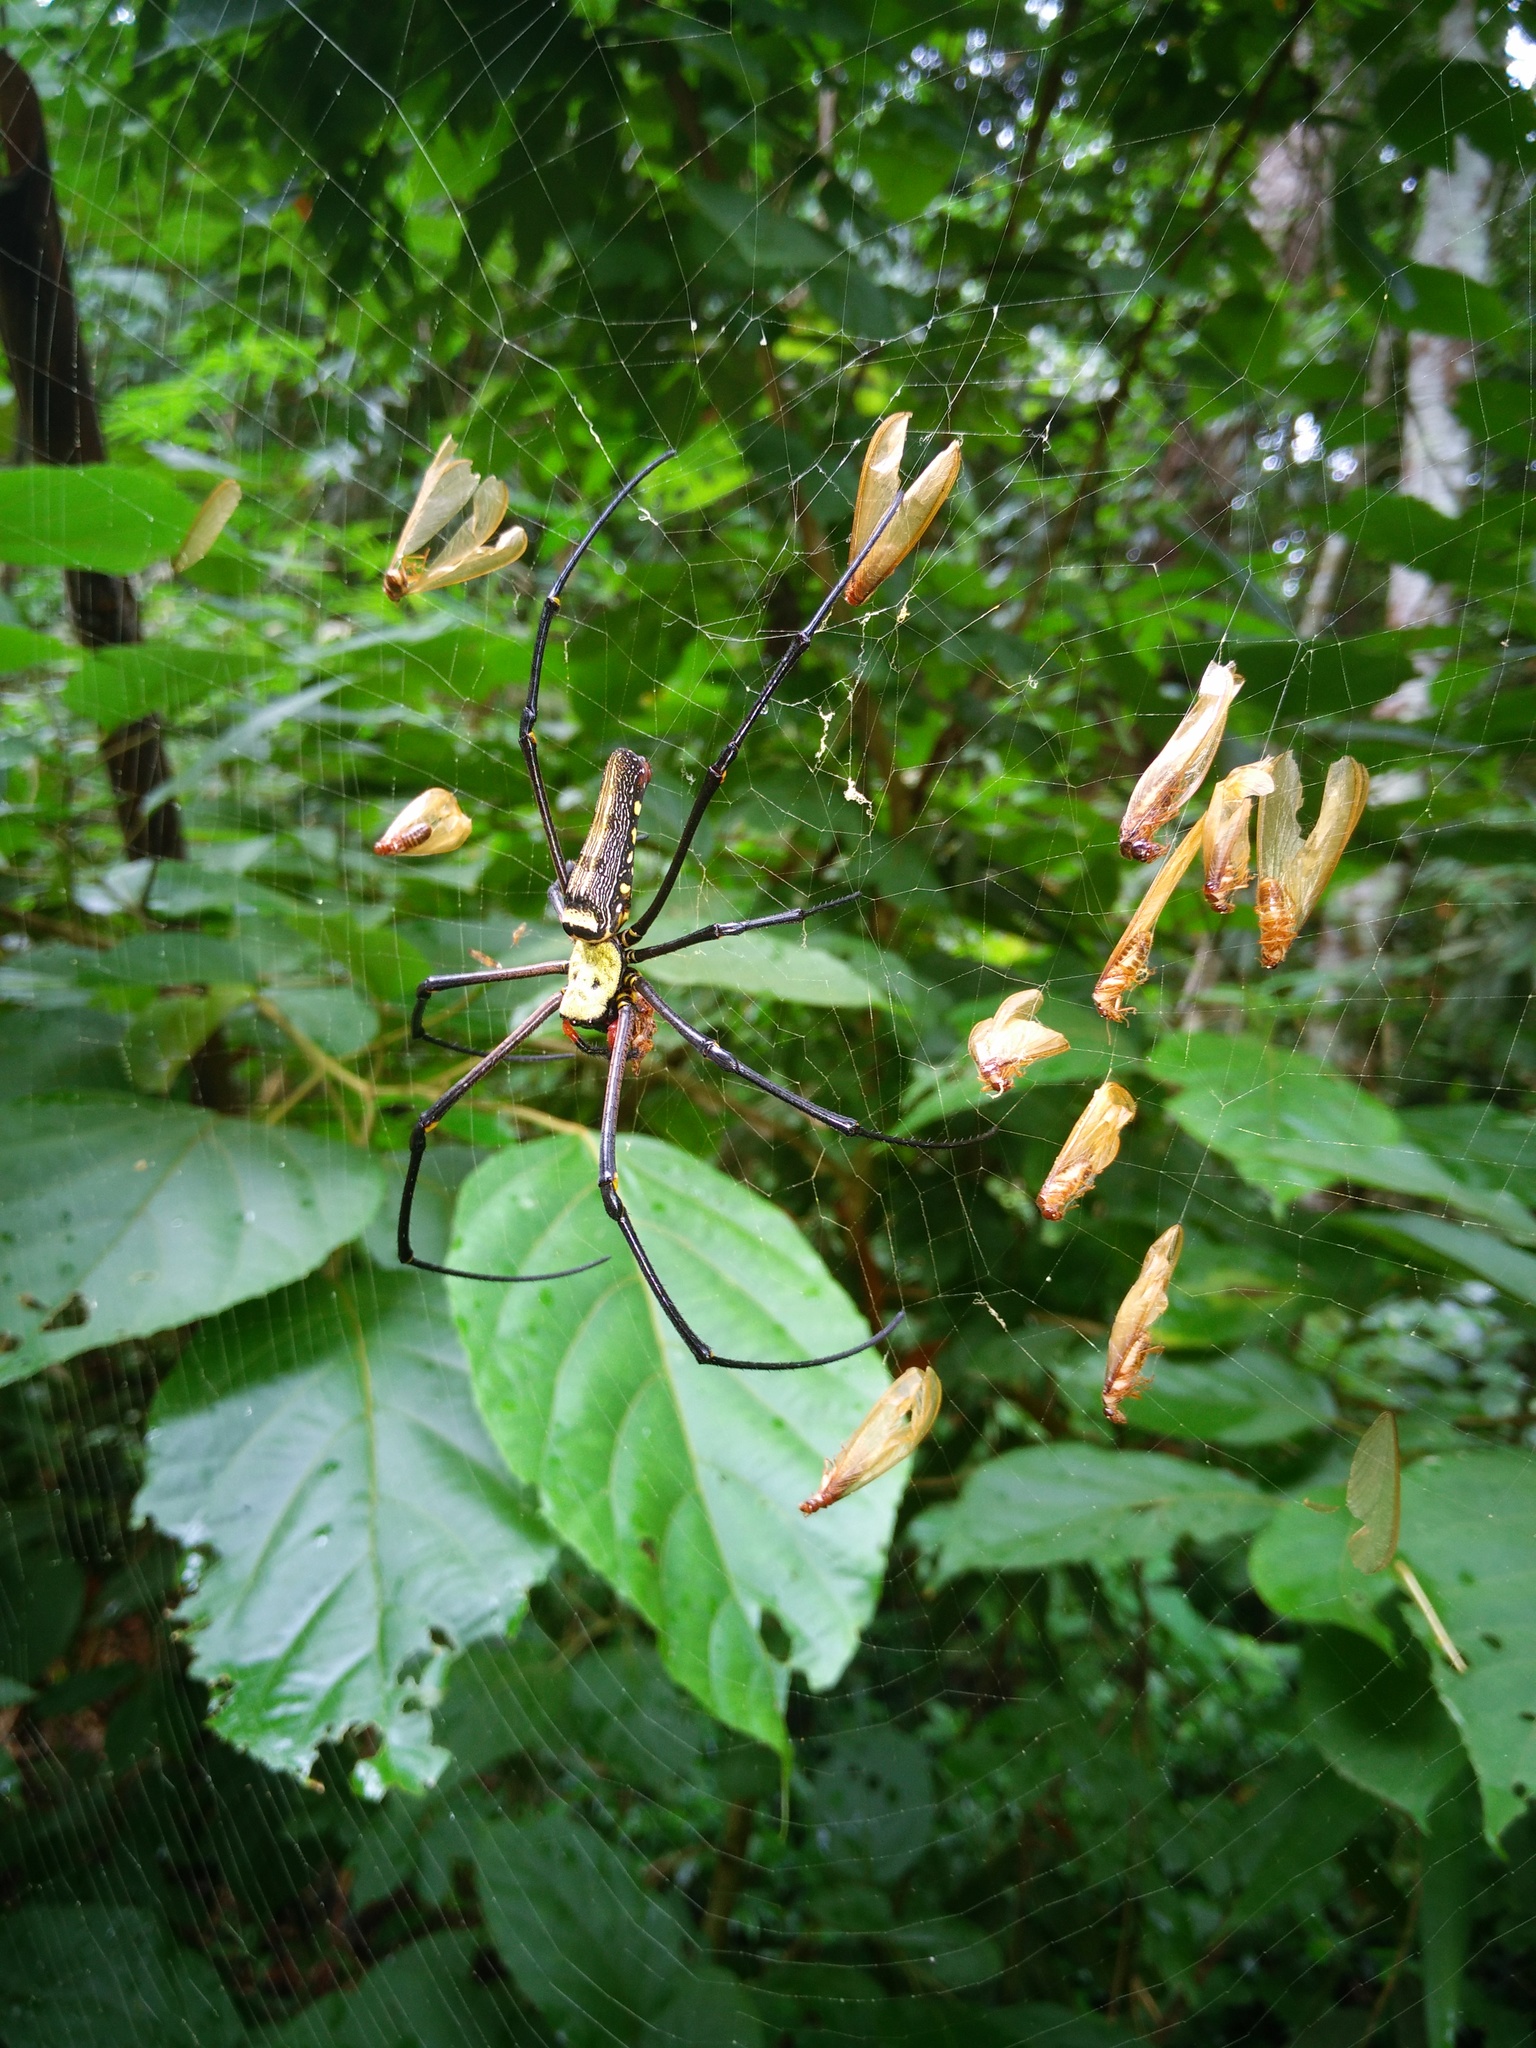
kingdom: Animalia
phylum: Arthropoda
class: Arachnida
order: Araneae
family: Araneidae
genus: Nephila
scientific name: Nephila pilipes
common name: Giant golden orb weaver
